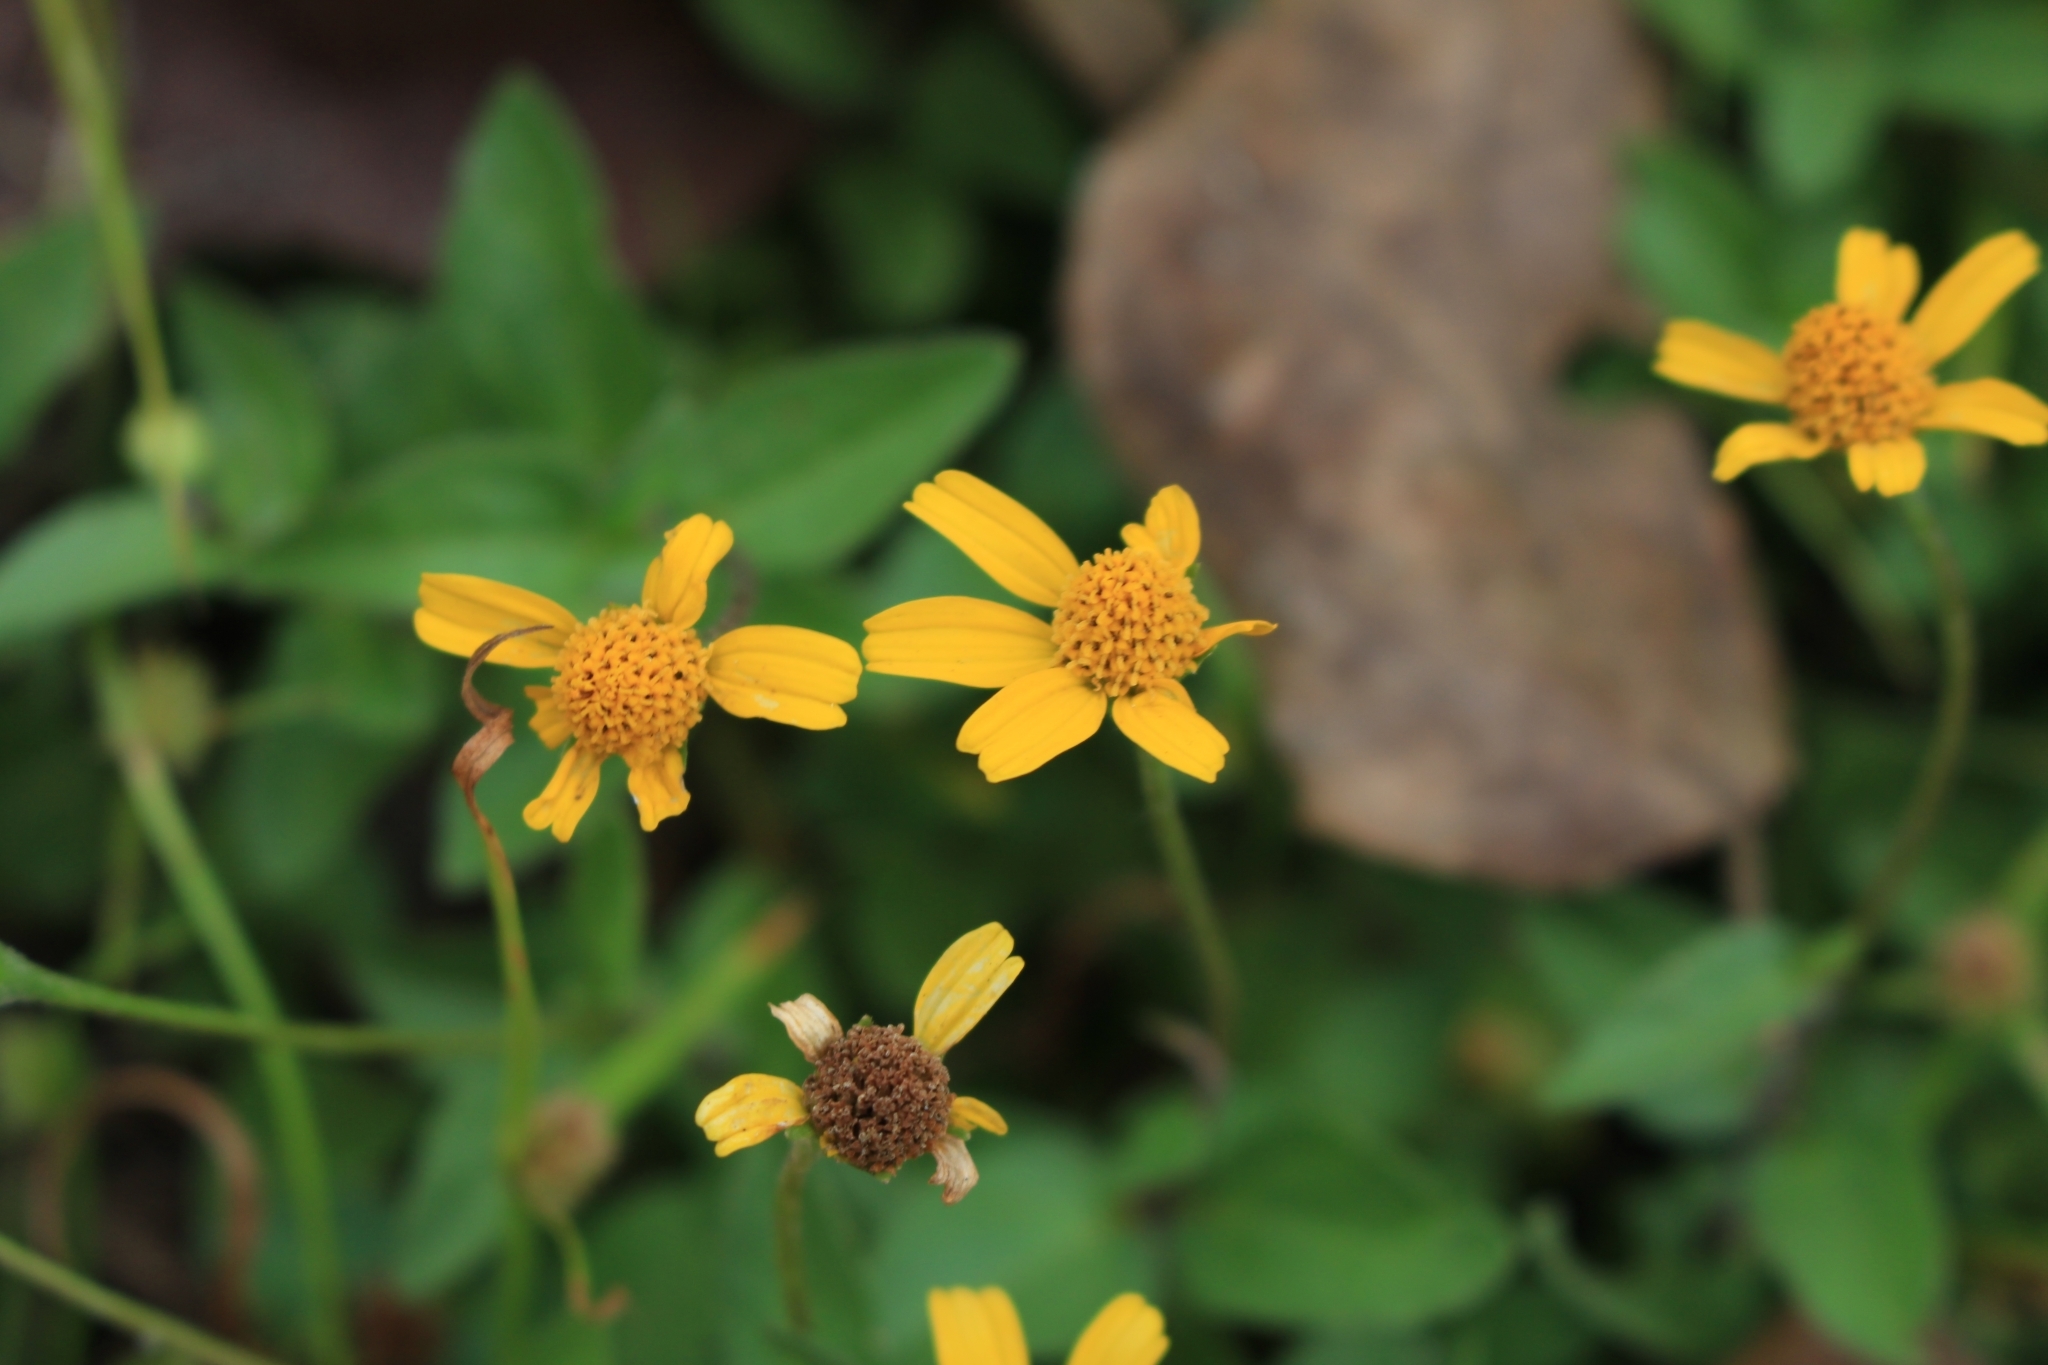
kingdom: Plantae
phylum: Tracheophyta
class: Magnoliopsida
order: Asterales
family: Asteraceae
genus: Acmella
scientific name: Acmella repens
